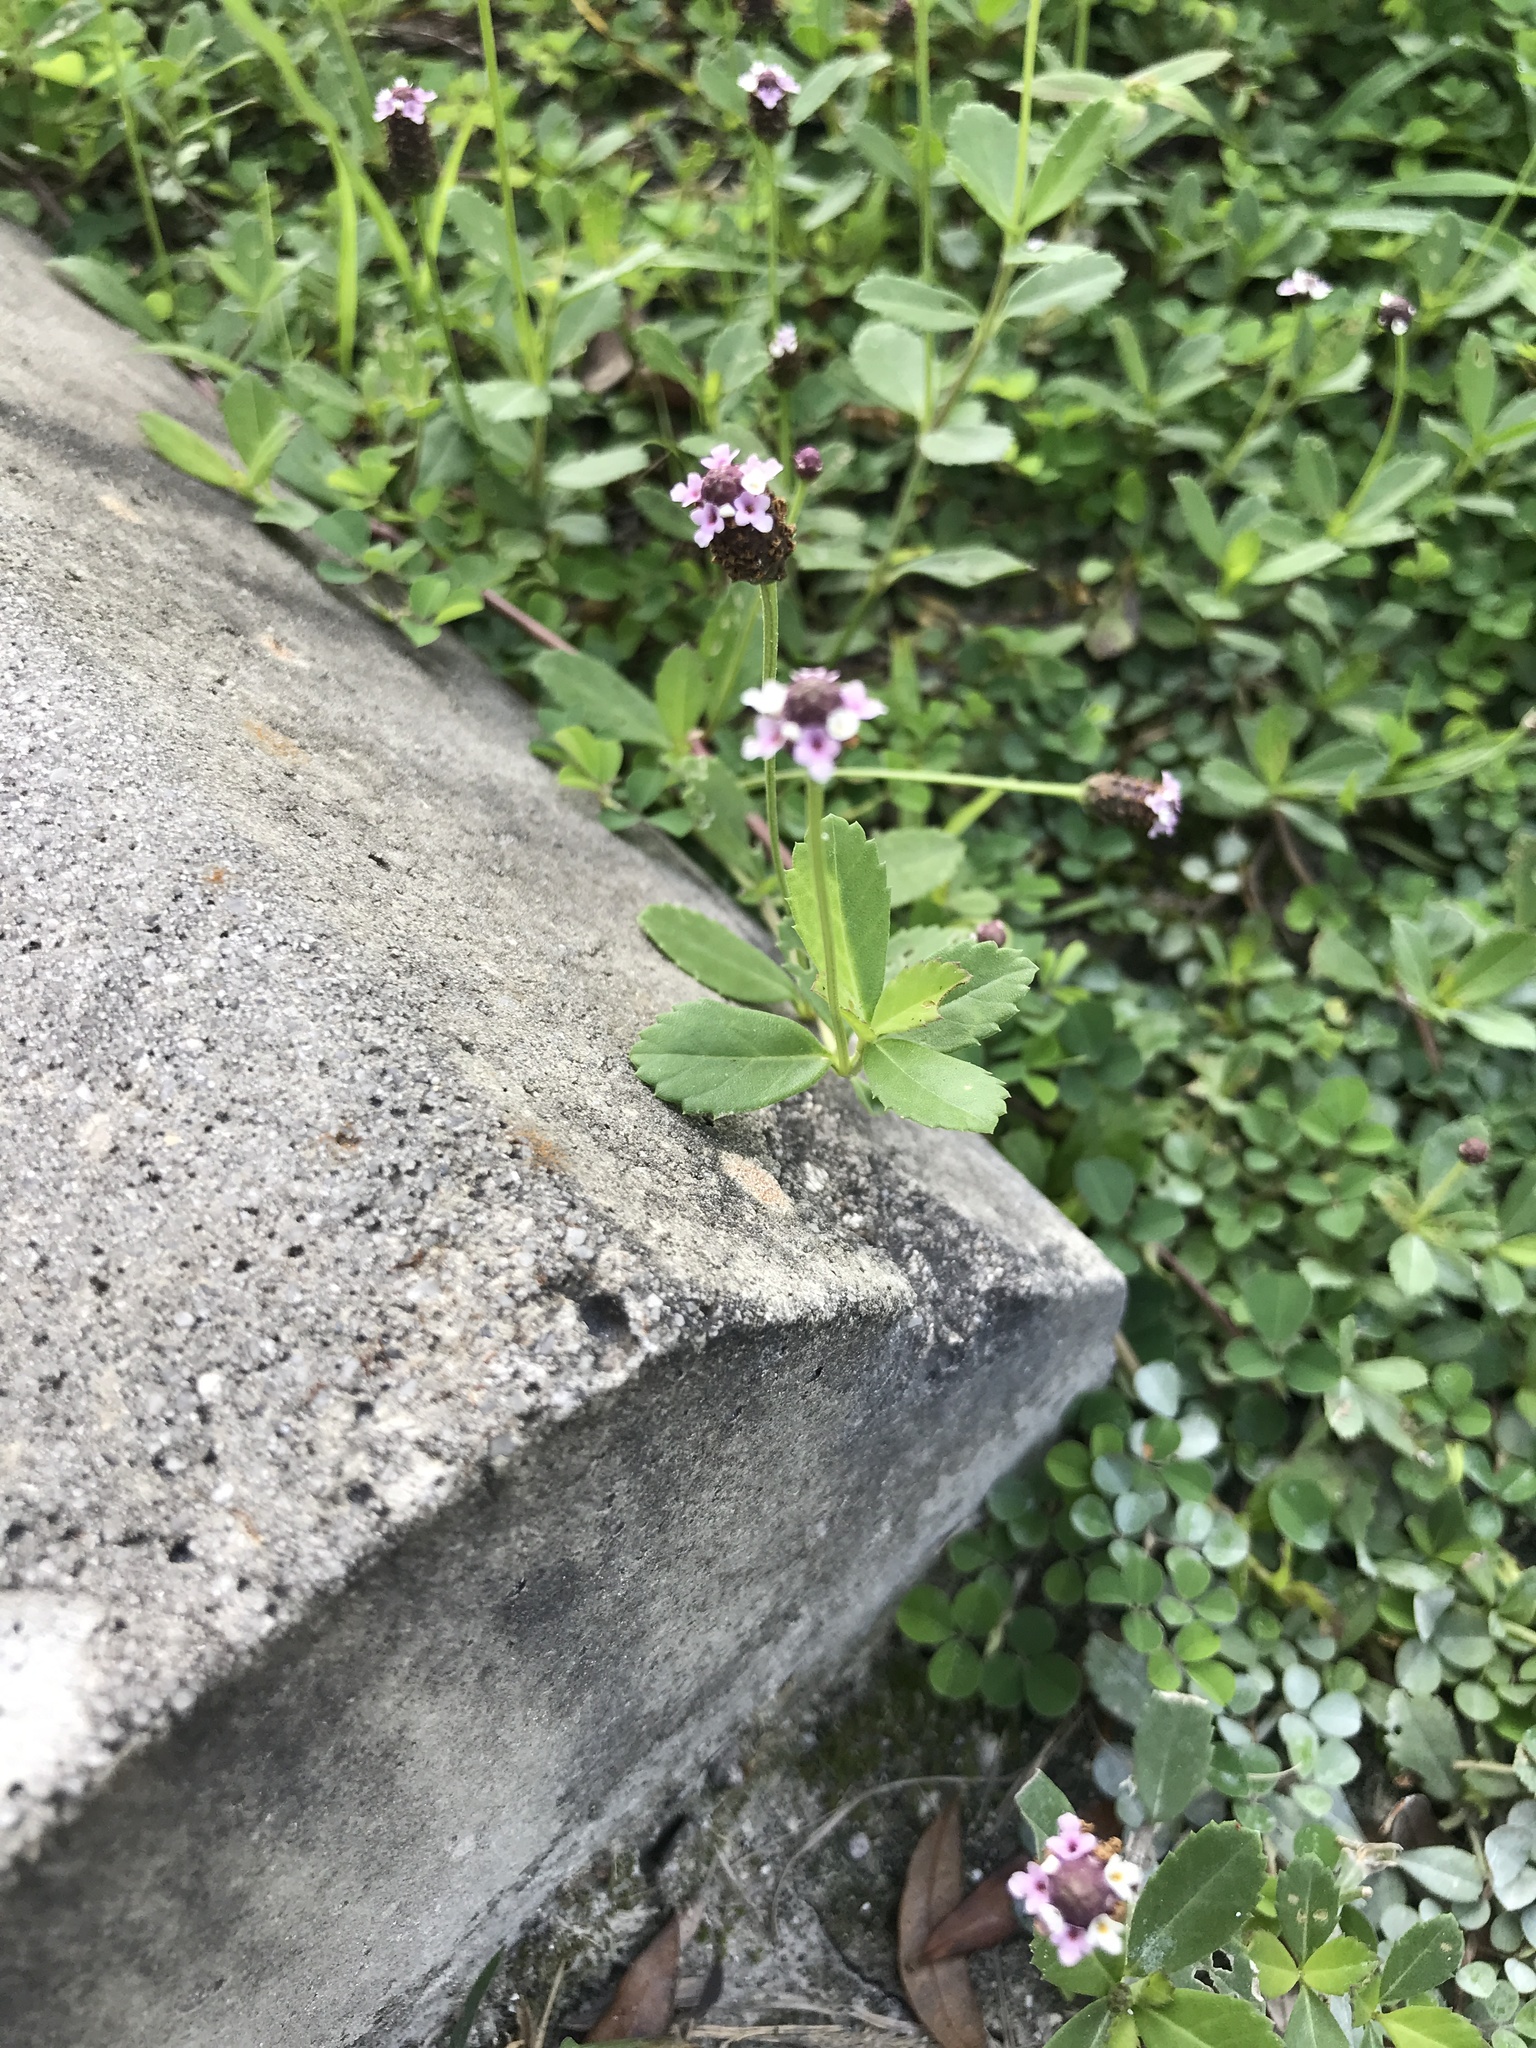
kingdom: Plantae
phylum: Tracheophyta
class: Magnoliopsida
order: Lamiales
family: Verbenaceae
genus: Phyla
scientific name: Phyla nodiflora
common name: Frogfruit
